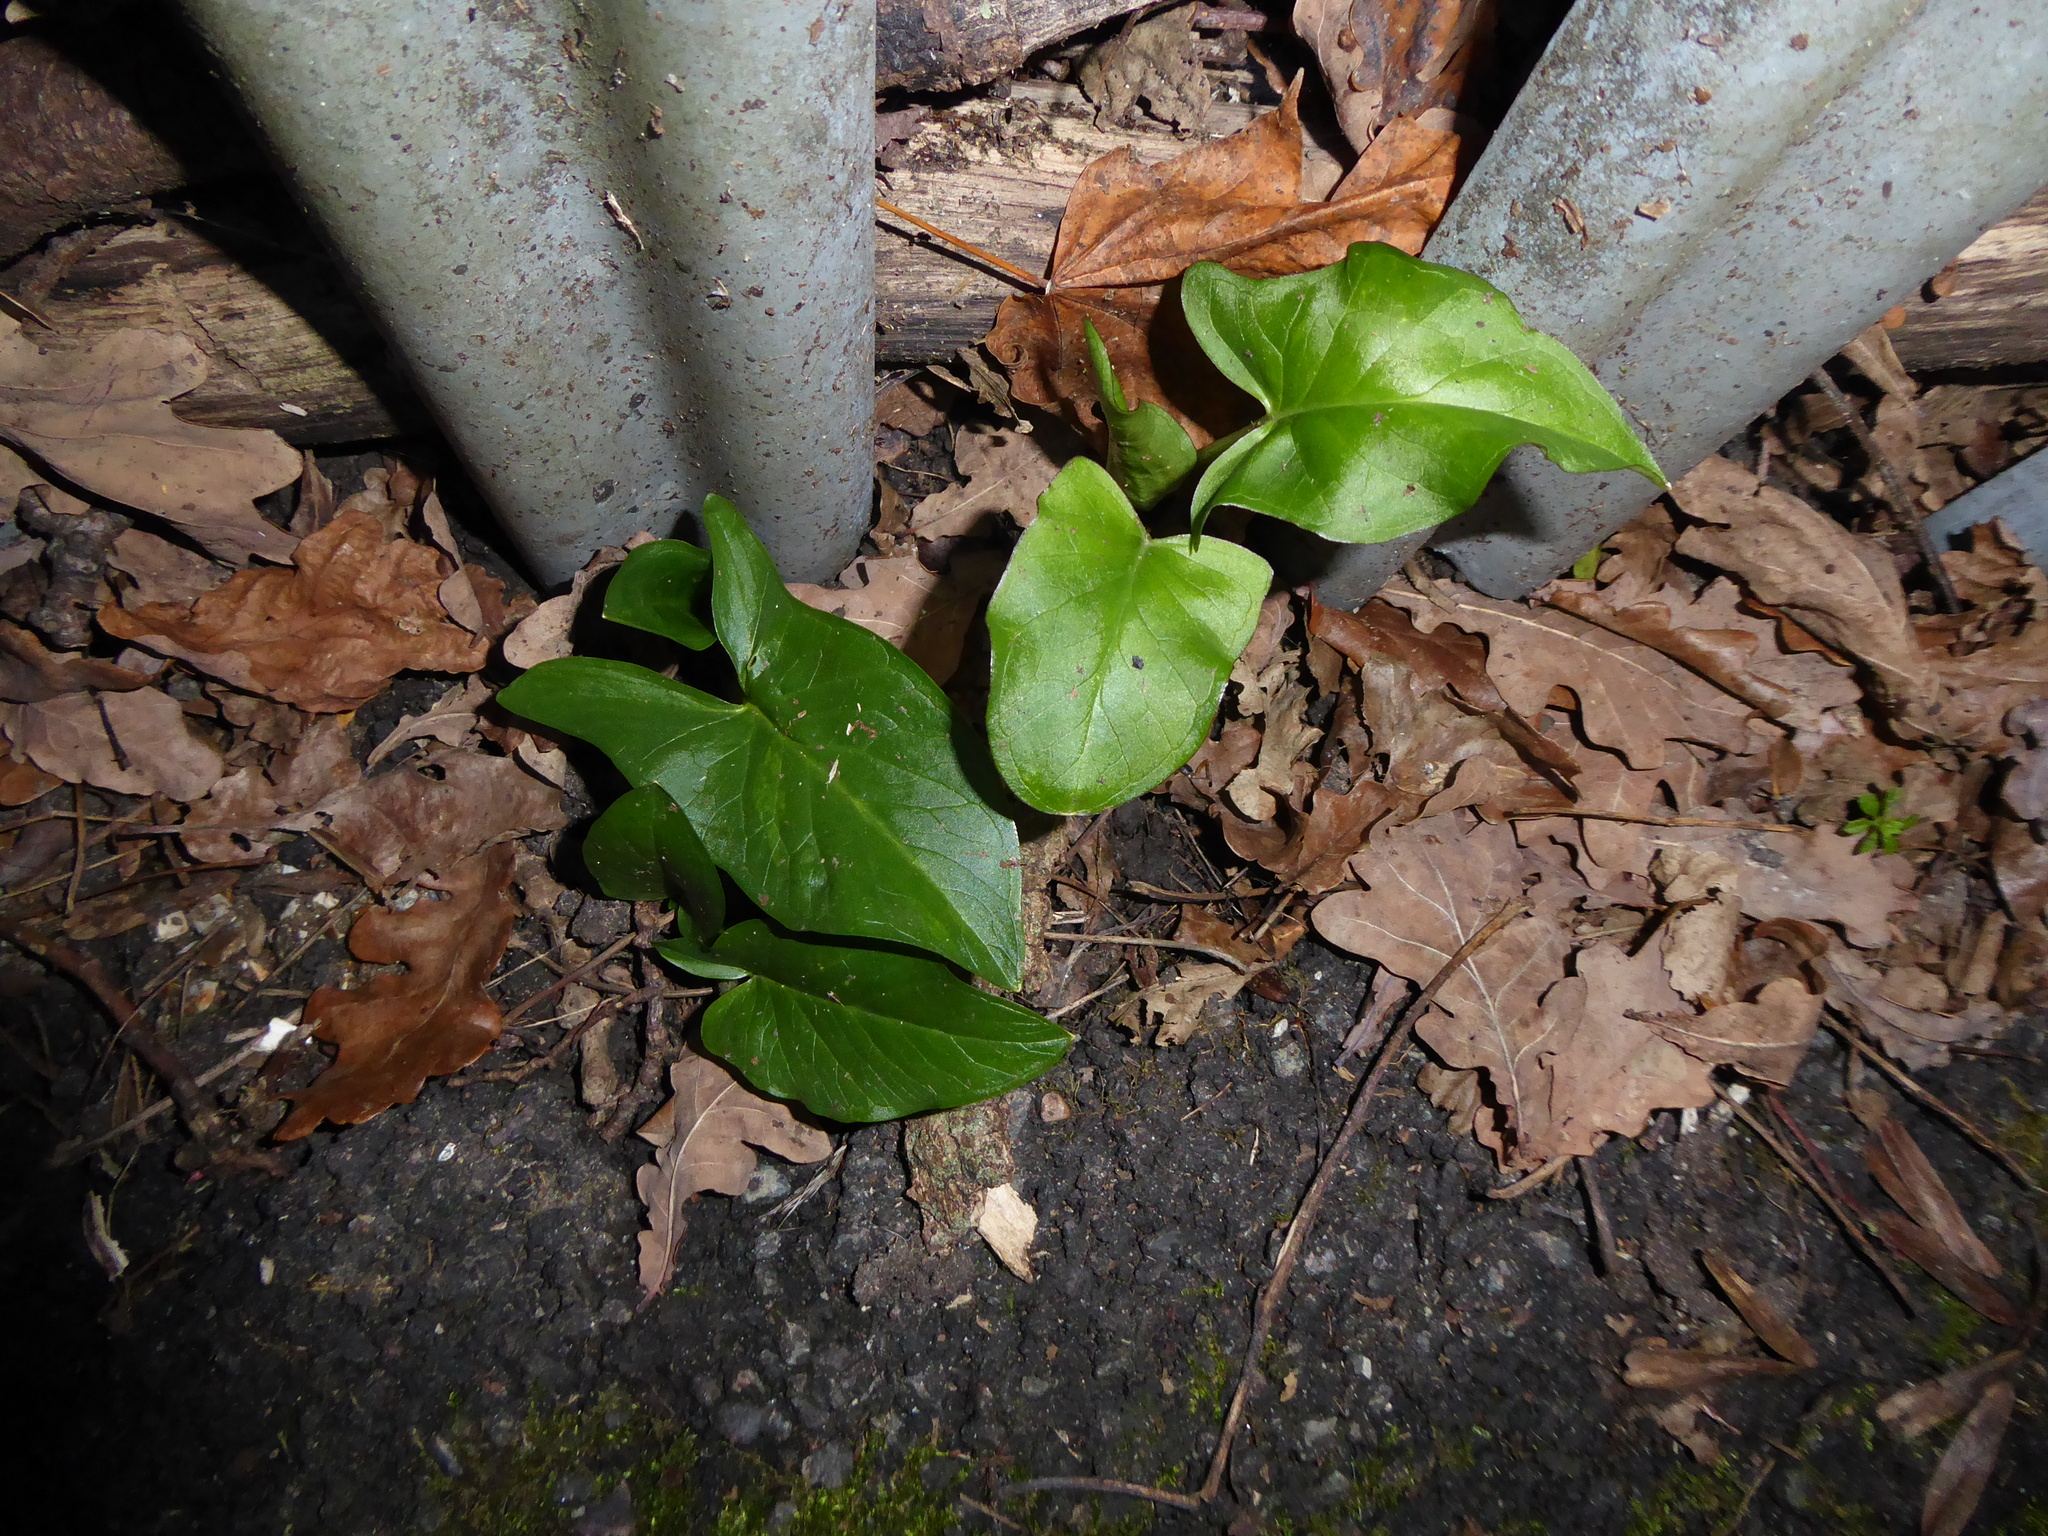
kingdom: Plantae
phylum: Tracheophyta
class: Liliopsida
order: Alismatales
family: Araceae
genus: Arum
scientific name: Arum maculatum
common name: Lords-and-ladies
